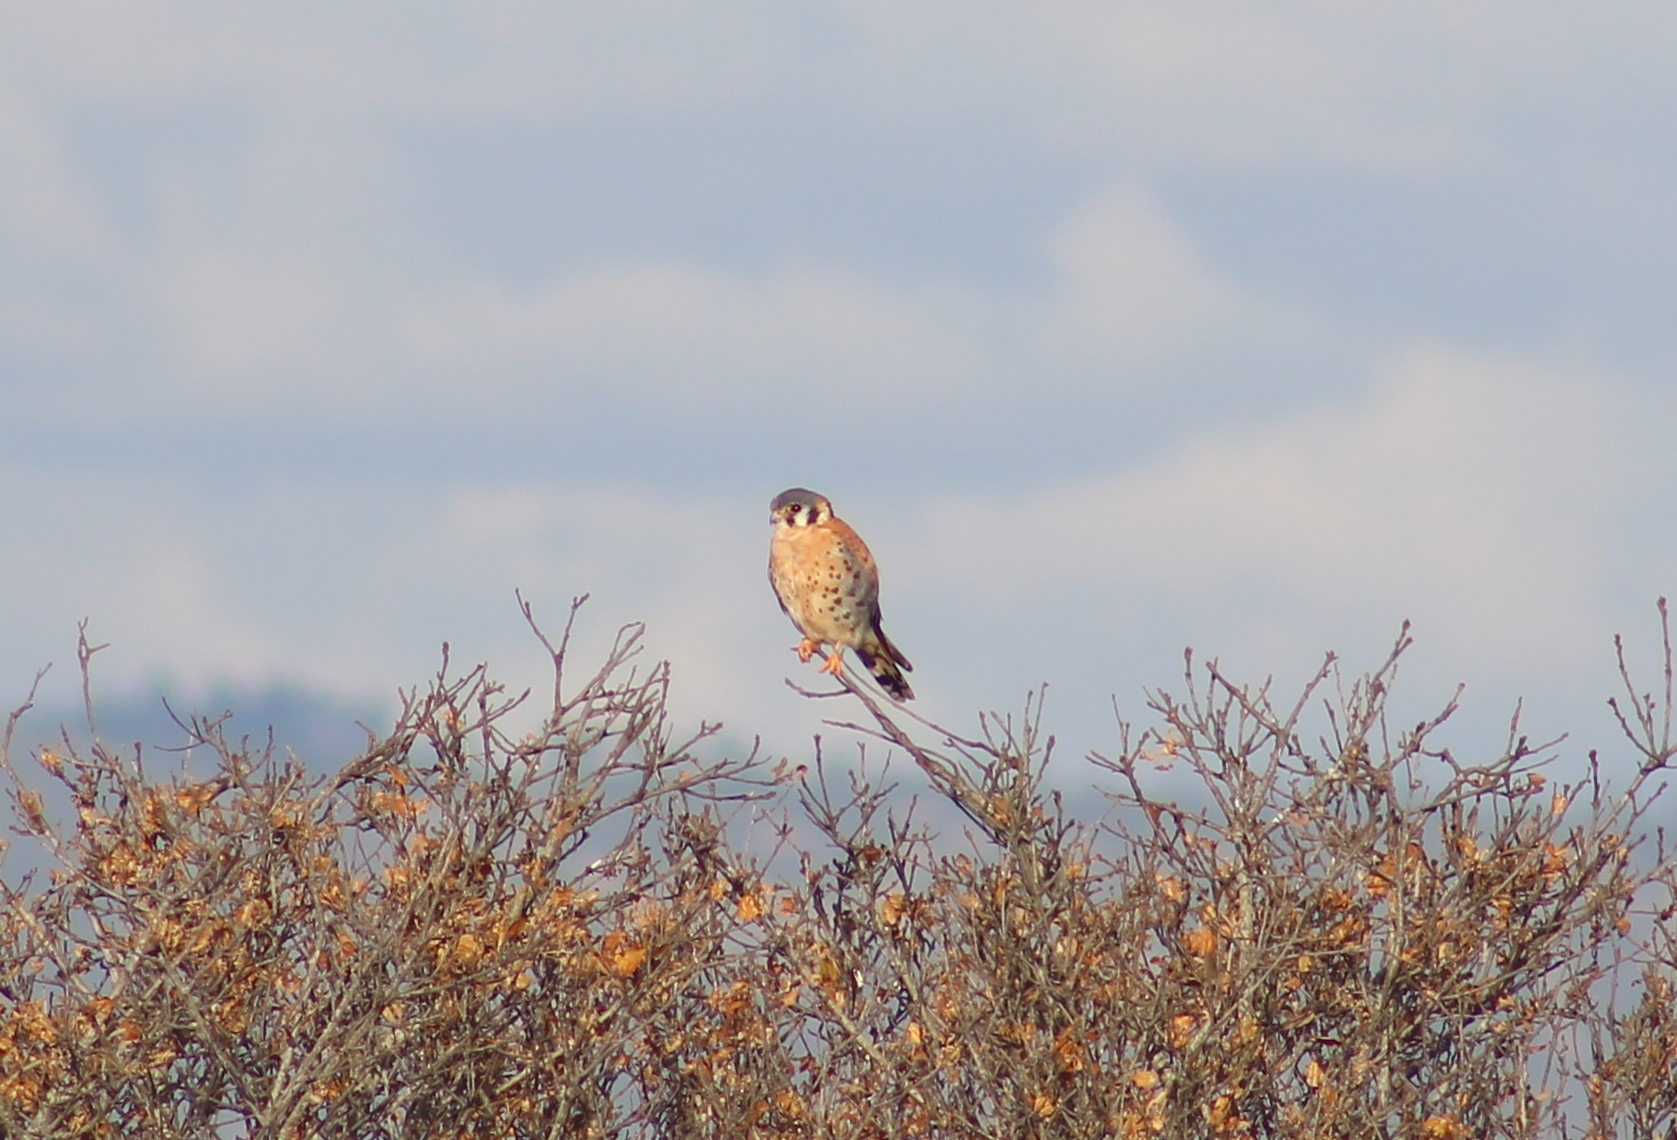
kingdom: Animalia
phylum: Chordata
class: Aves
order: Falconiformes
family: Falconidae
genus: Falco
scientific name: Falco sparverius
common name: American kestrel
